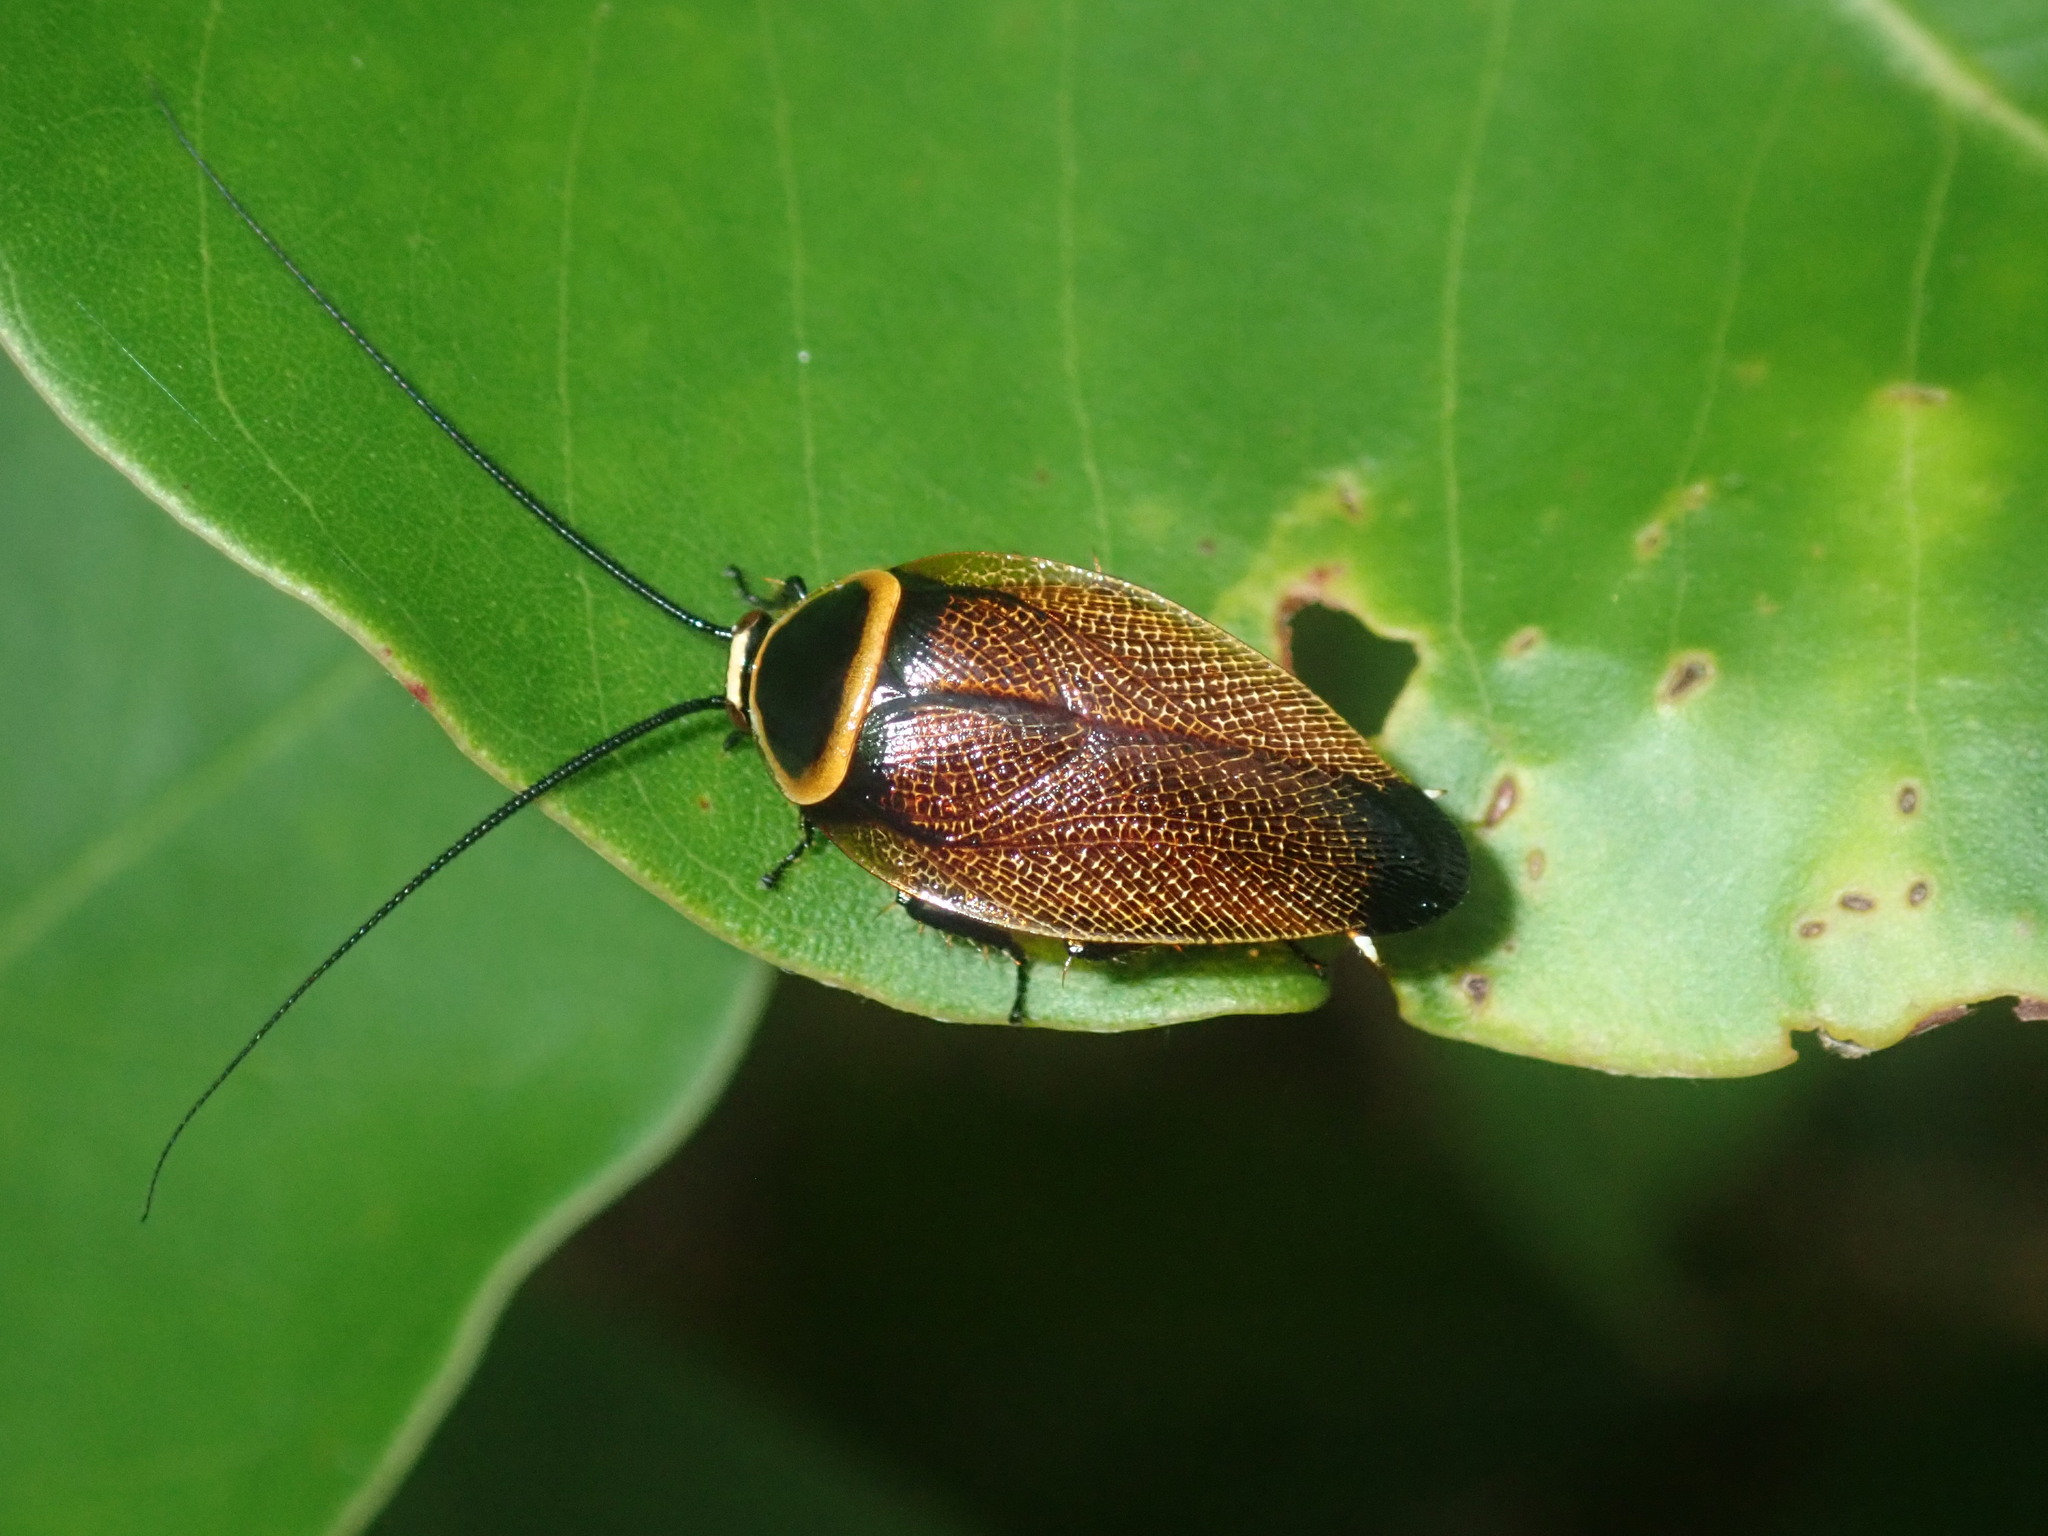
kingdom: Animalia
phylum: Arthropoda
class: Insecta
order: Blattodea
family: Ectobiidae
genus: Ellipsidion
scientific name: Ellipsidion australe
